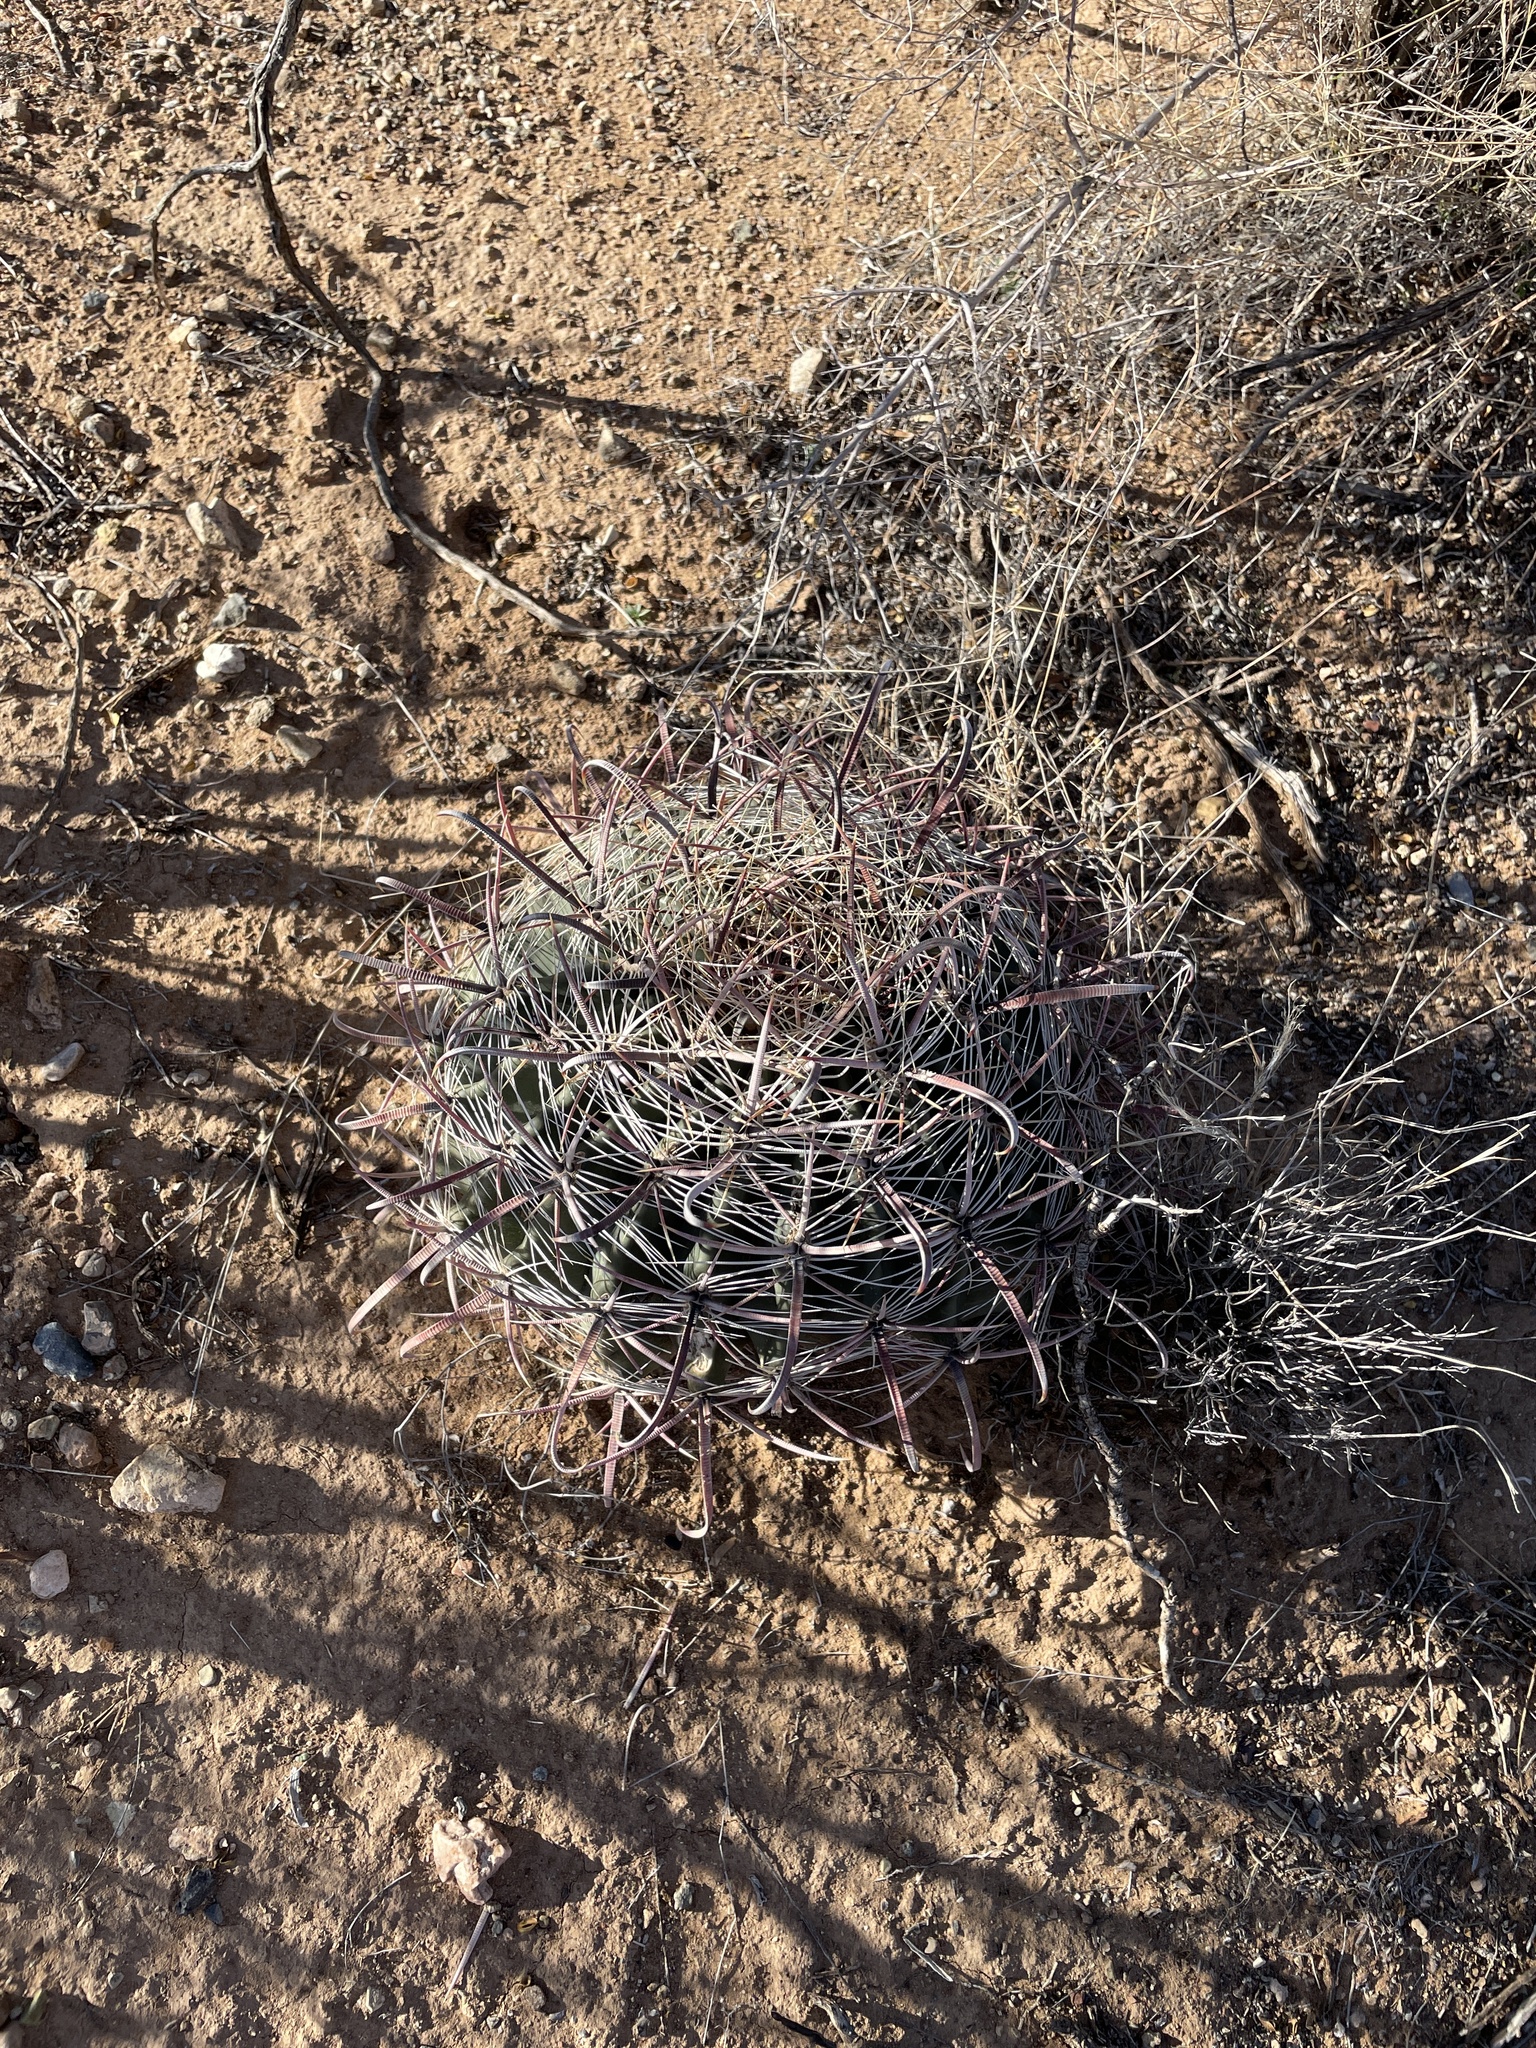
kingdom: Plantae
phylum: Tracheophyta
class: Magnoliopsida
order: Caryophyllales
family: Cactaceae
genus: Ferocactus
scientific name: Ferocactus wislizeni
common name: Candy barrel cactus
